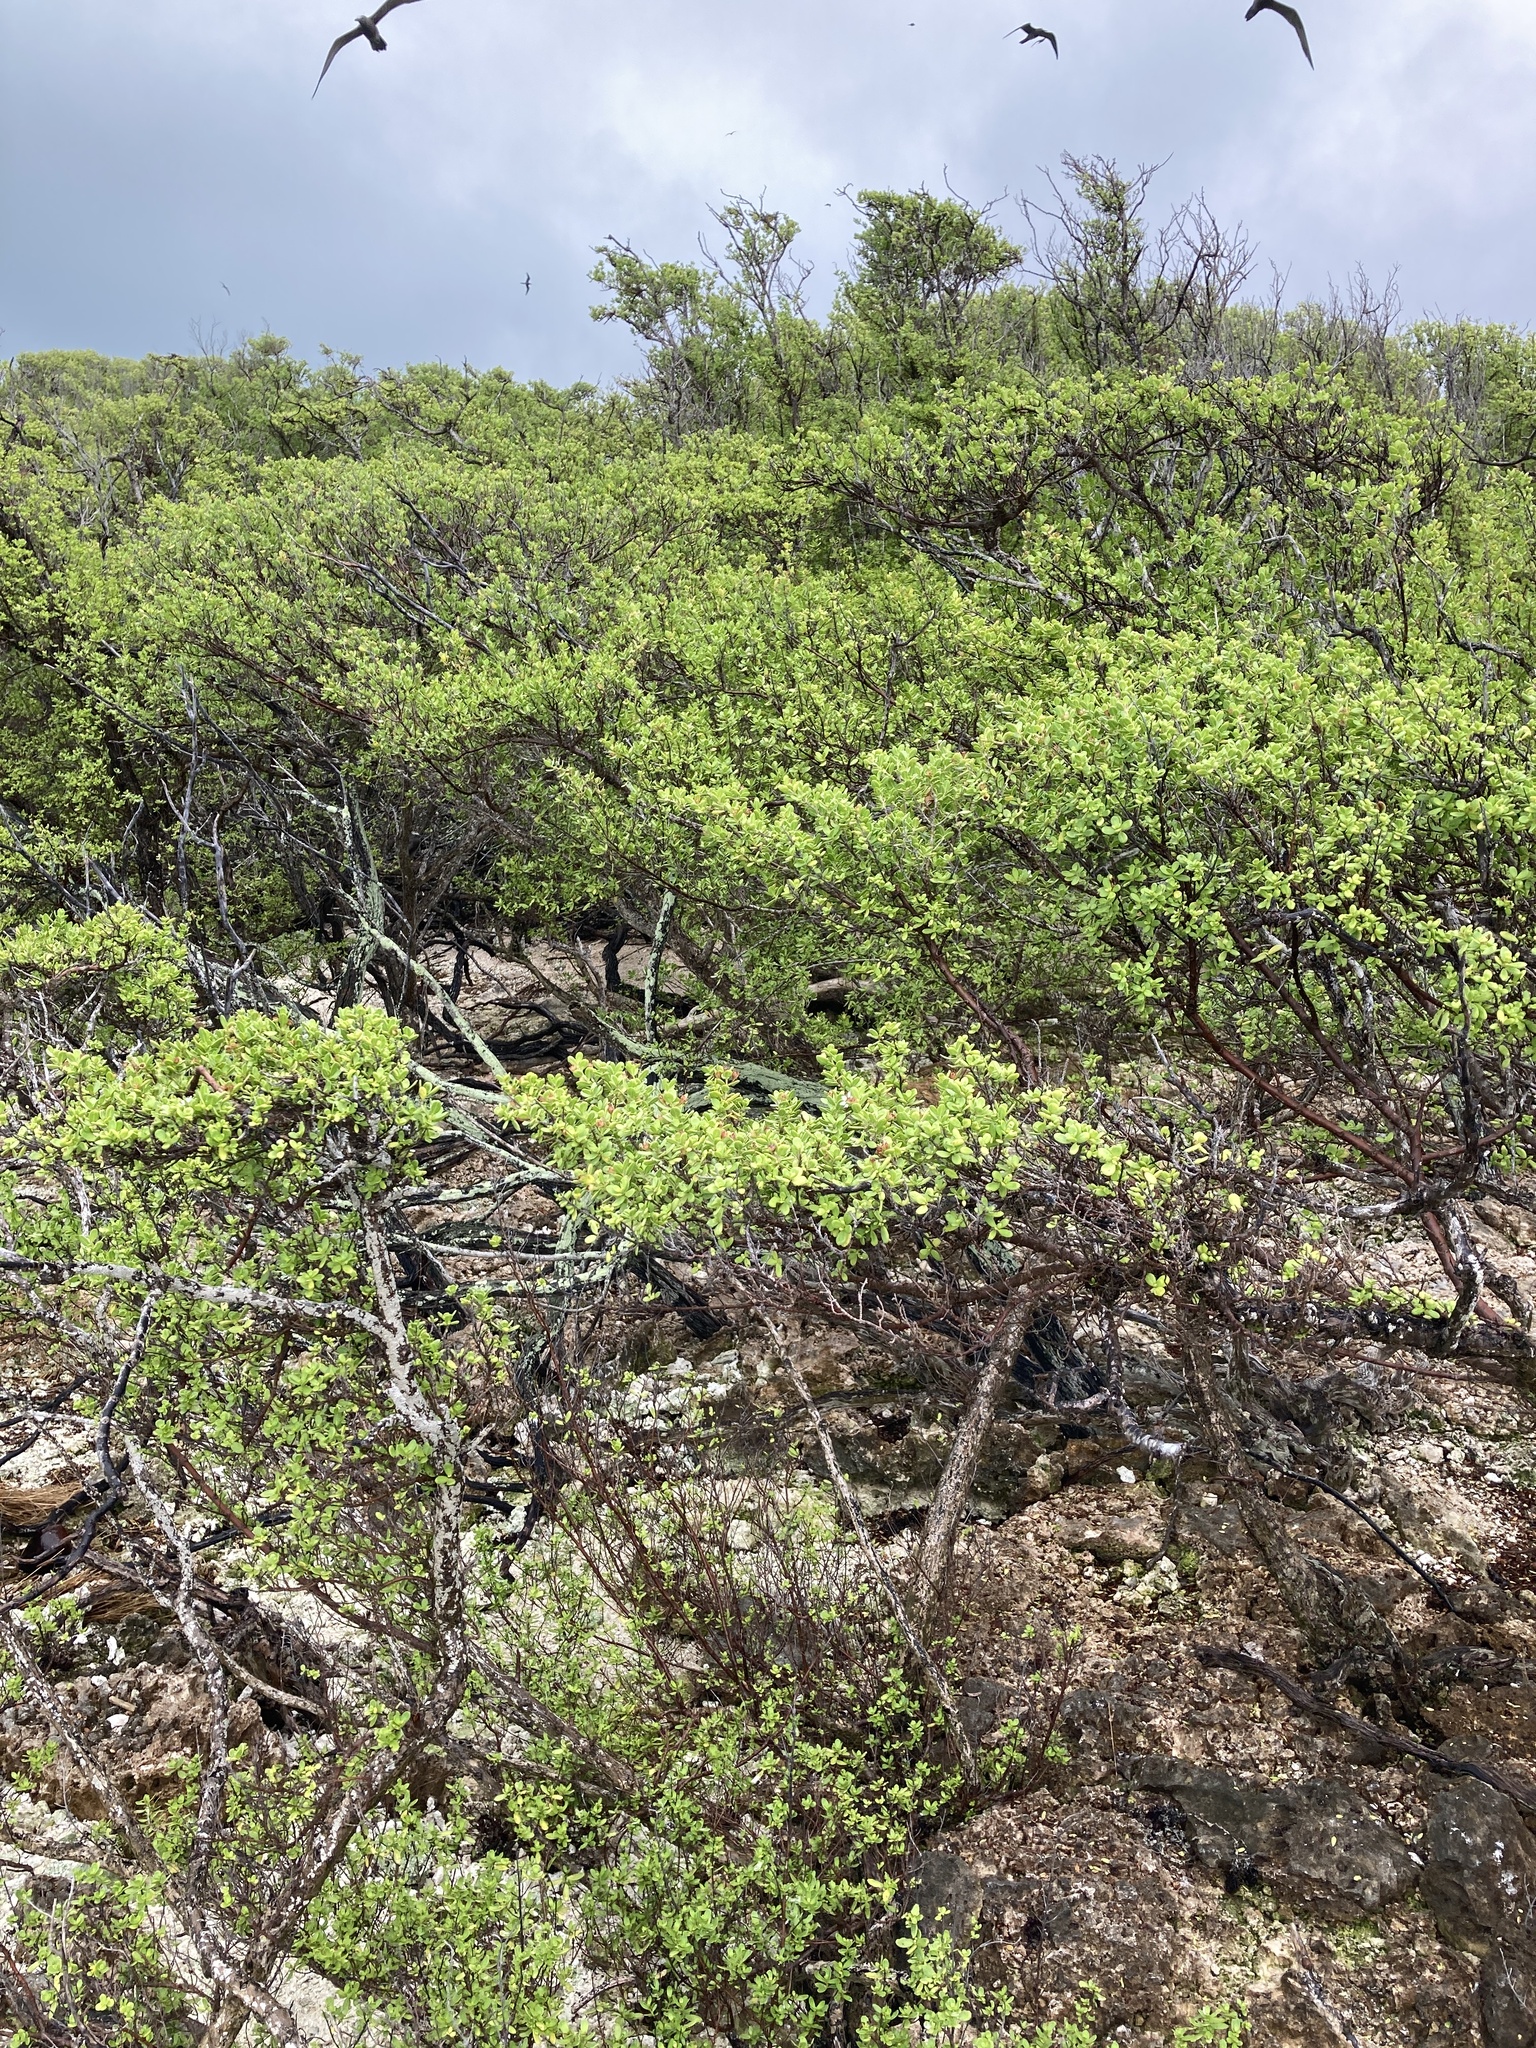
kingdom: Plantae
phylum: Tracheophyta
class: Magnoliopsida
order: Myrtales
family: Lythraceae
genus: Pemphis
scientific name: Pemphis acidula
